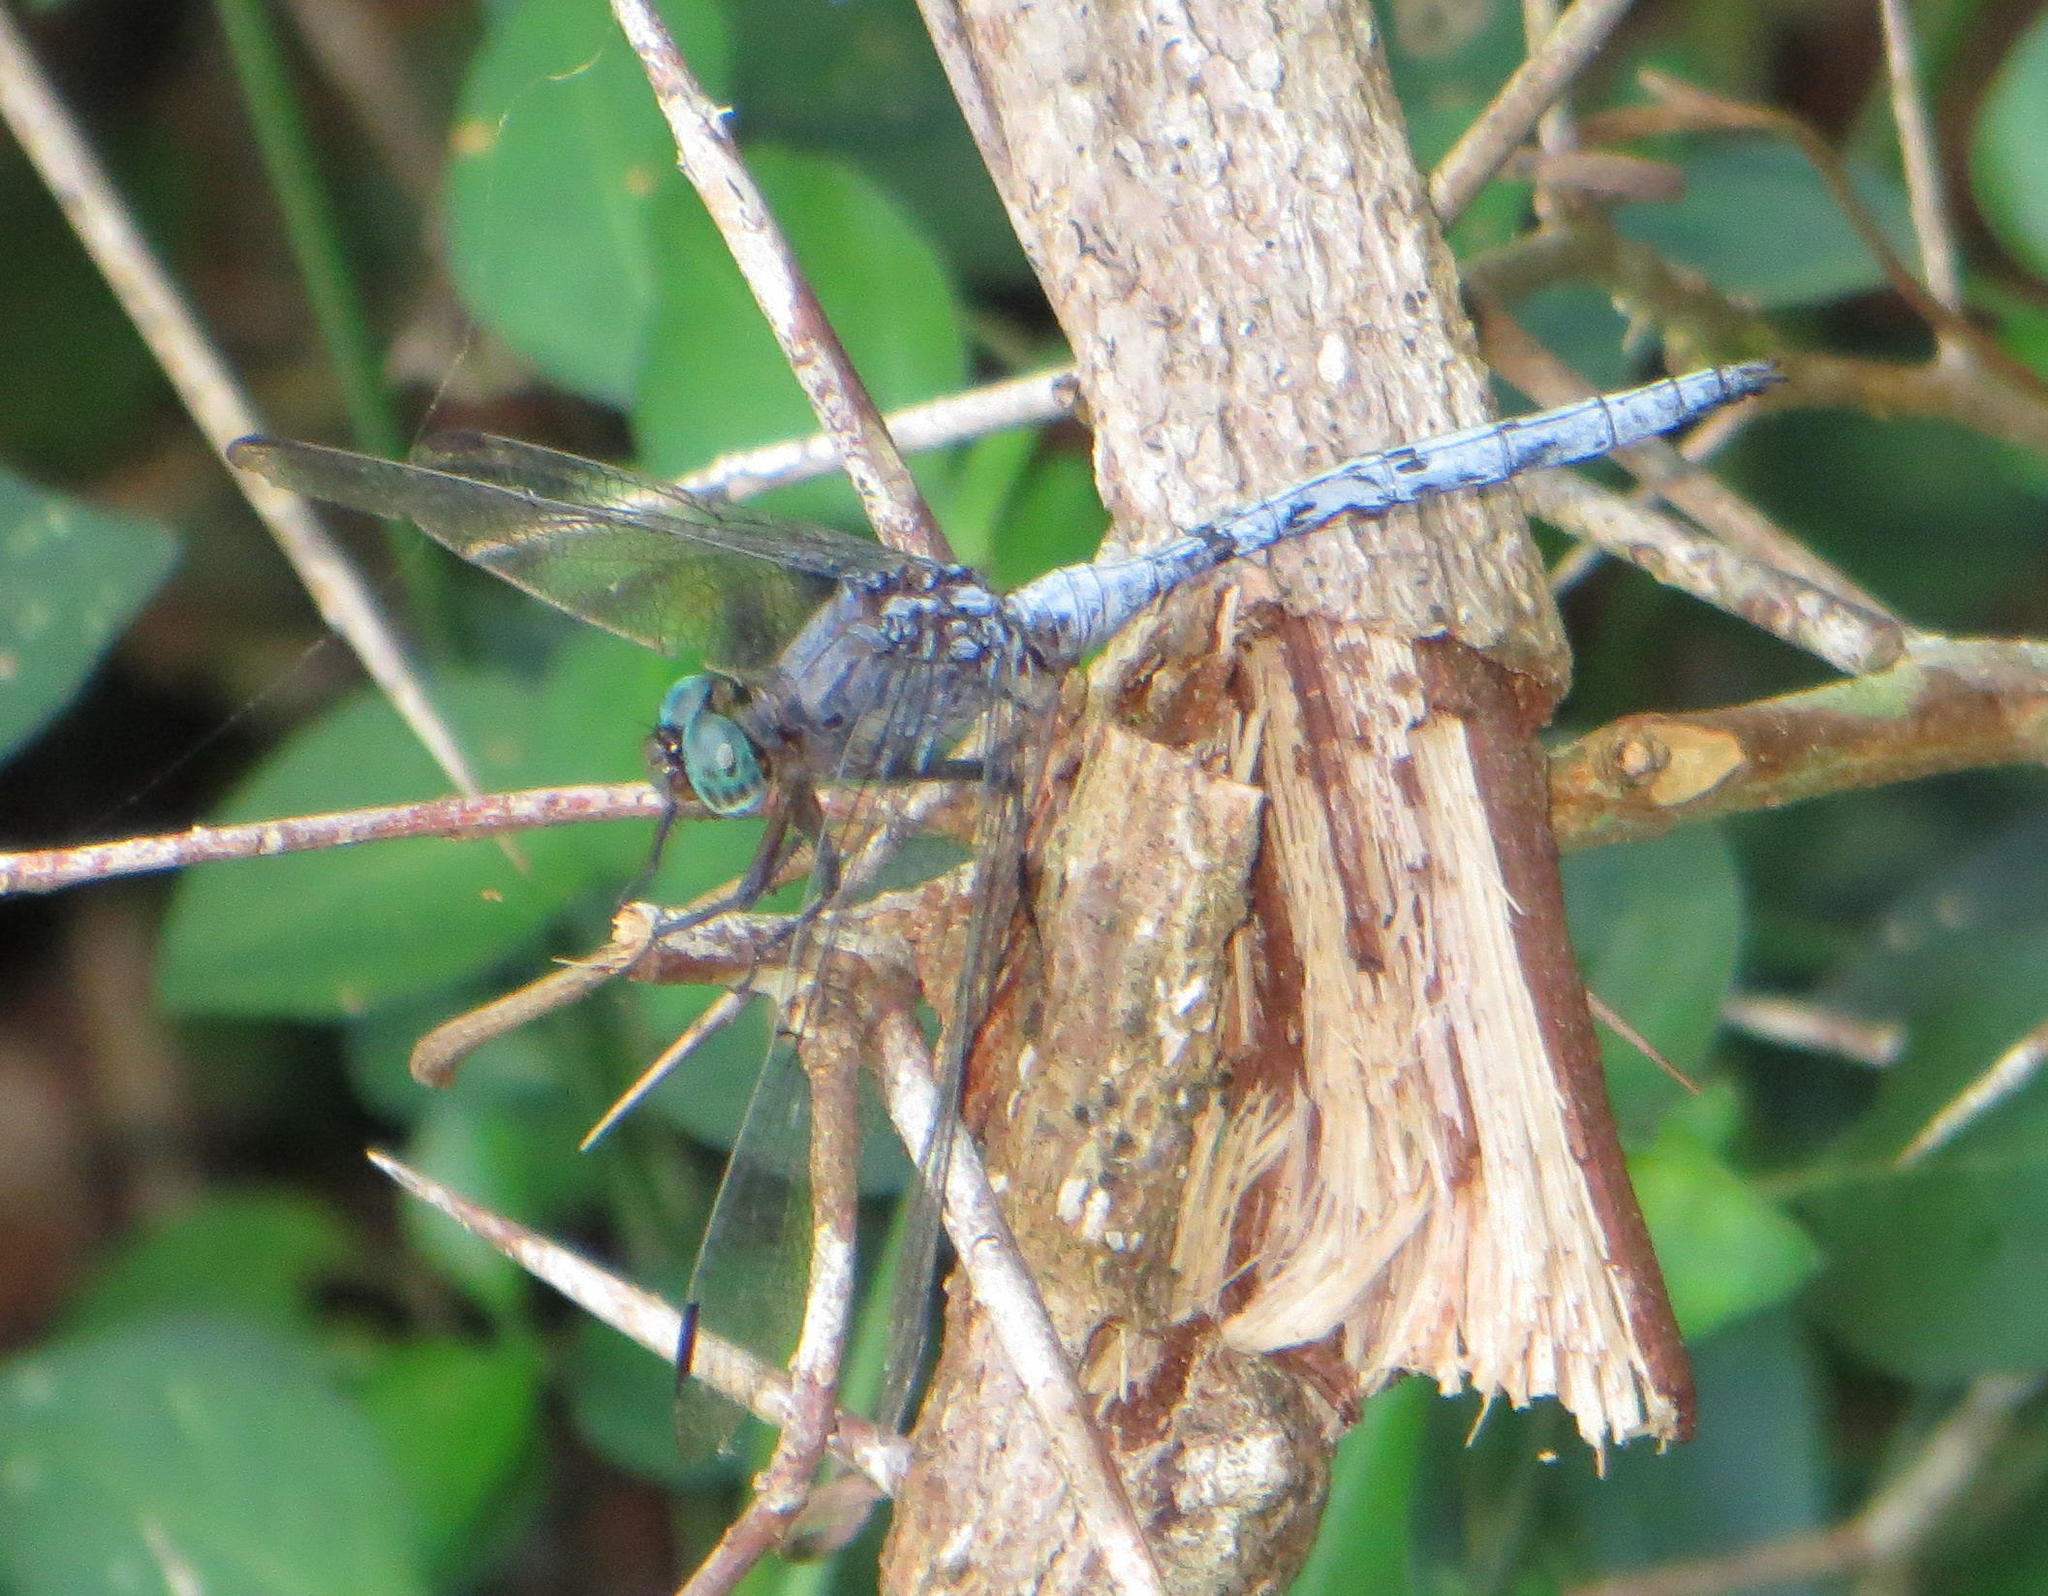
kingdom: Animalia
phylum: Arthropoda
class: Insecta
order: Odonata
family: Libellulidae
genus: Orthetrum
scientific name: Orthetrum julia
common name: Julia skimmer
